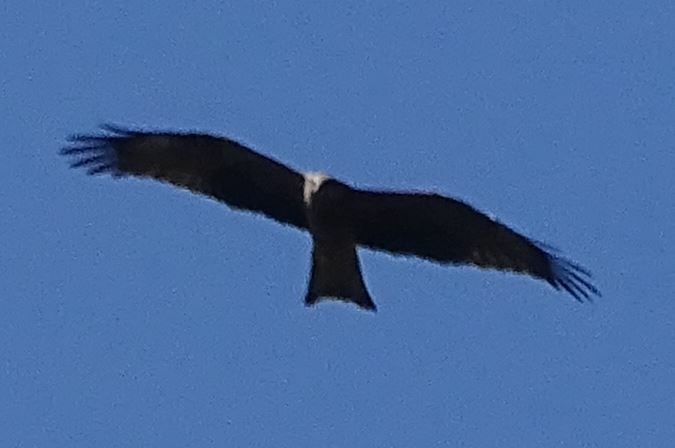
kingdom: Animalia
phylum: Chordata
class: Aves
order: Accipitriformes
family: Accipitridae
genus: Milvus
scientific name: Milvus migrans
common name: Black kite
